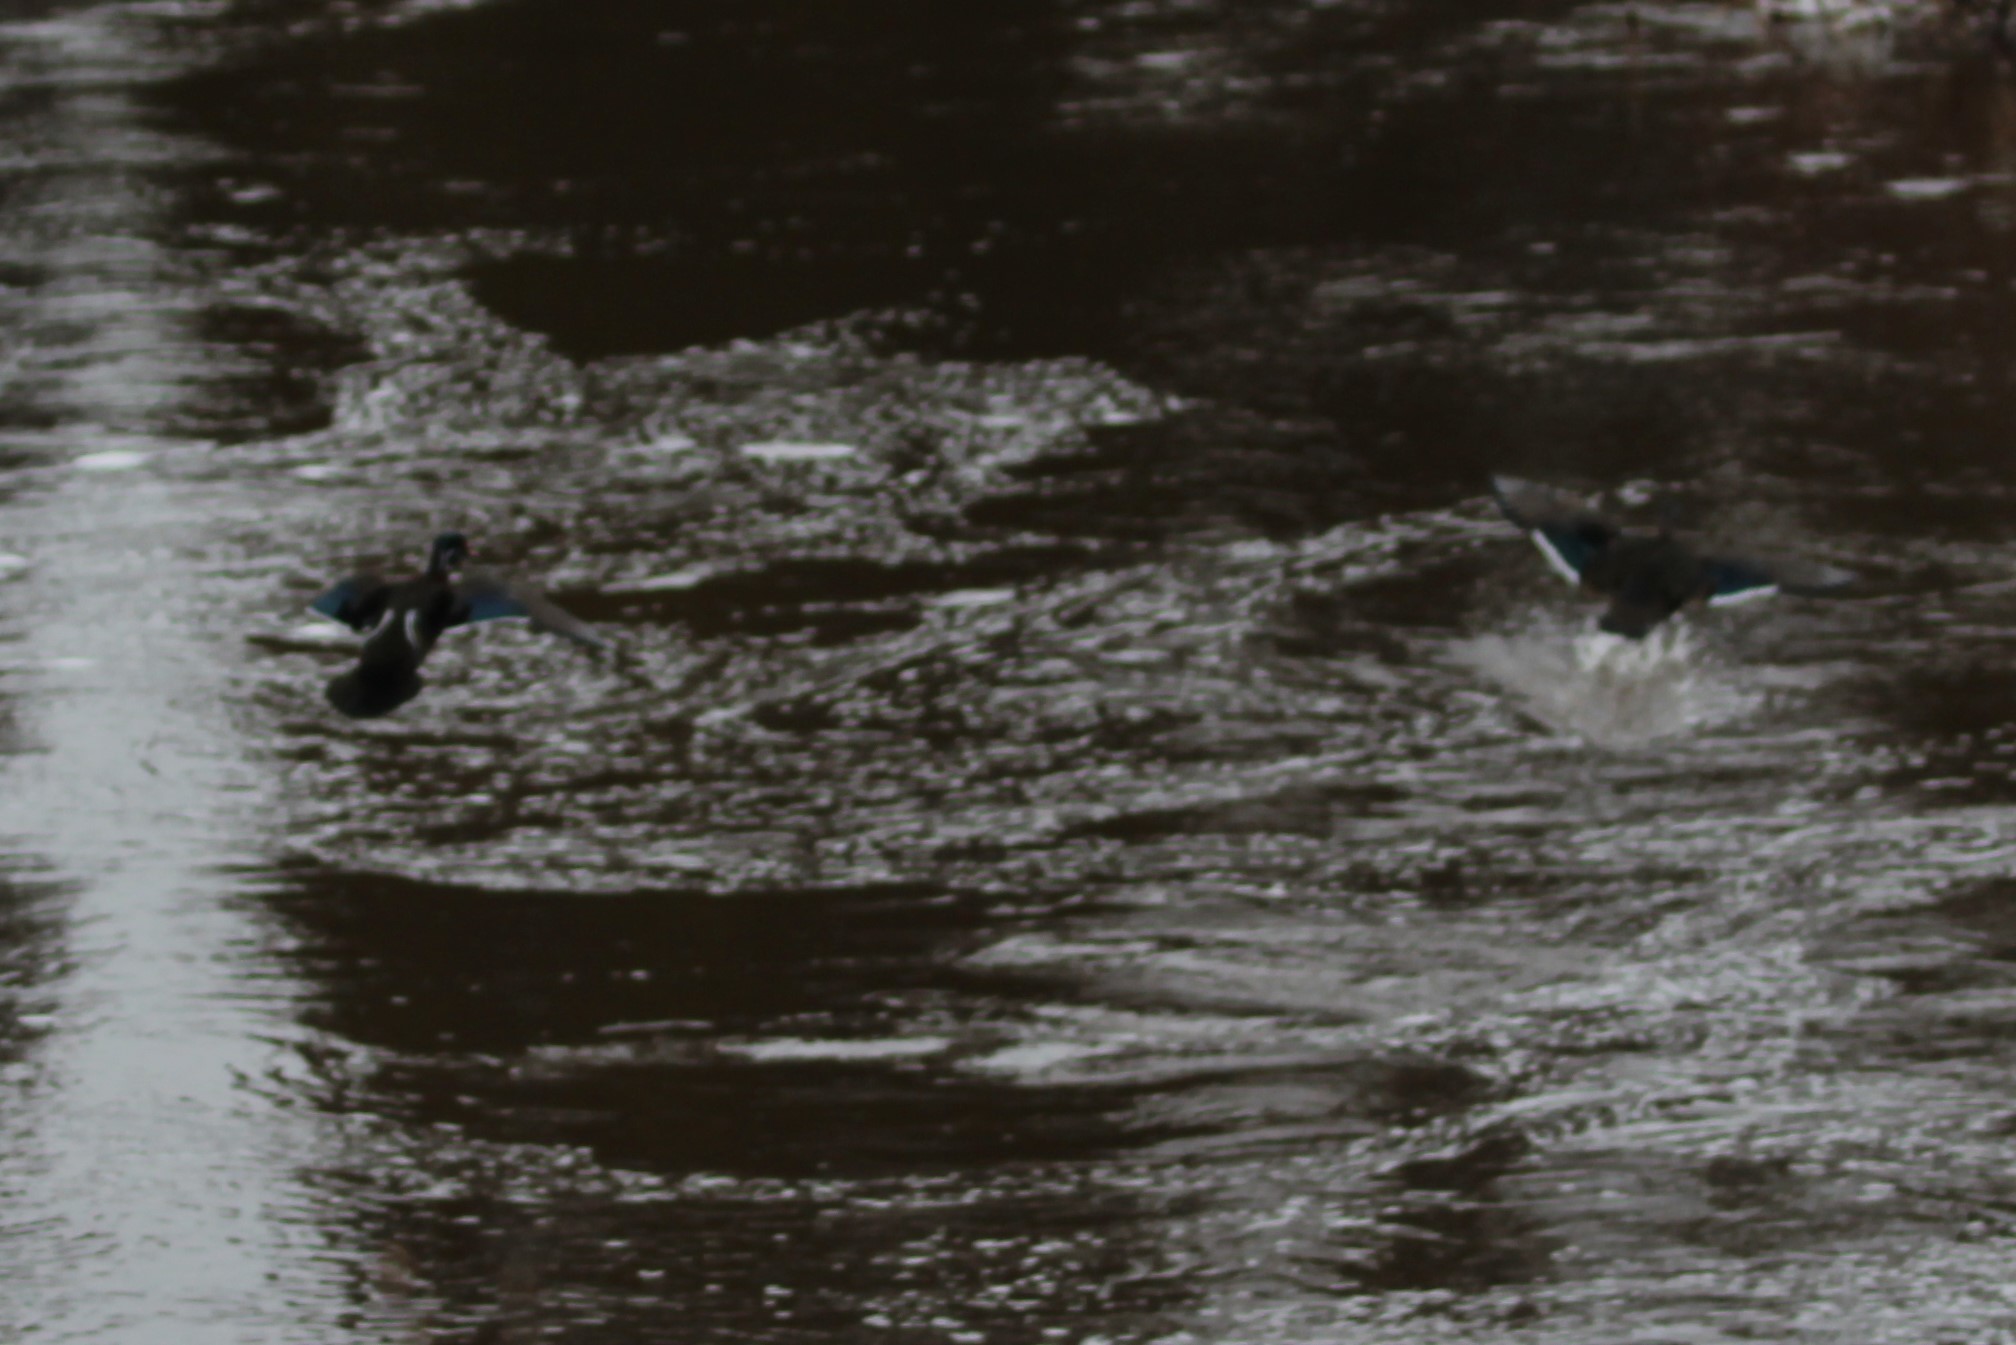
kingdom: Animalia
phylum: Chordata
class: Aves
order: Anseriformes
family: Anatidae
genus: Aix
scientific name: Aix sponsa
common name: Wood duck
